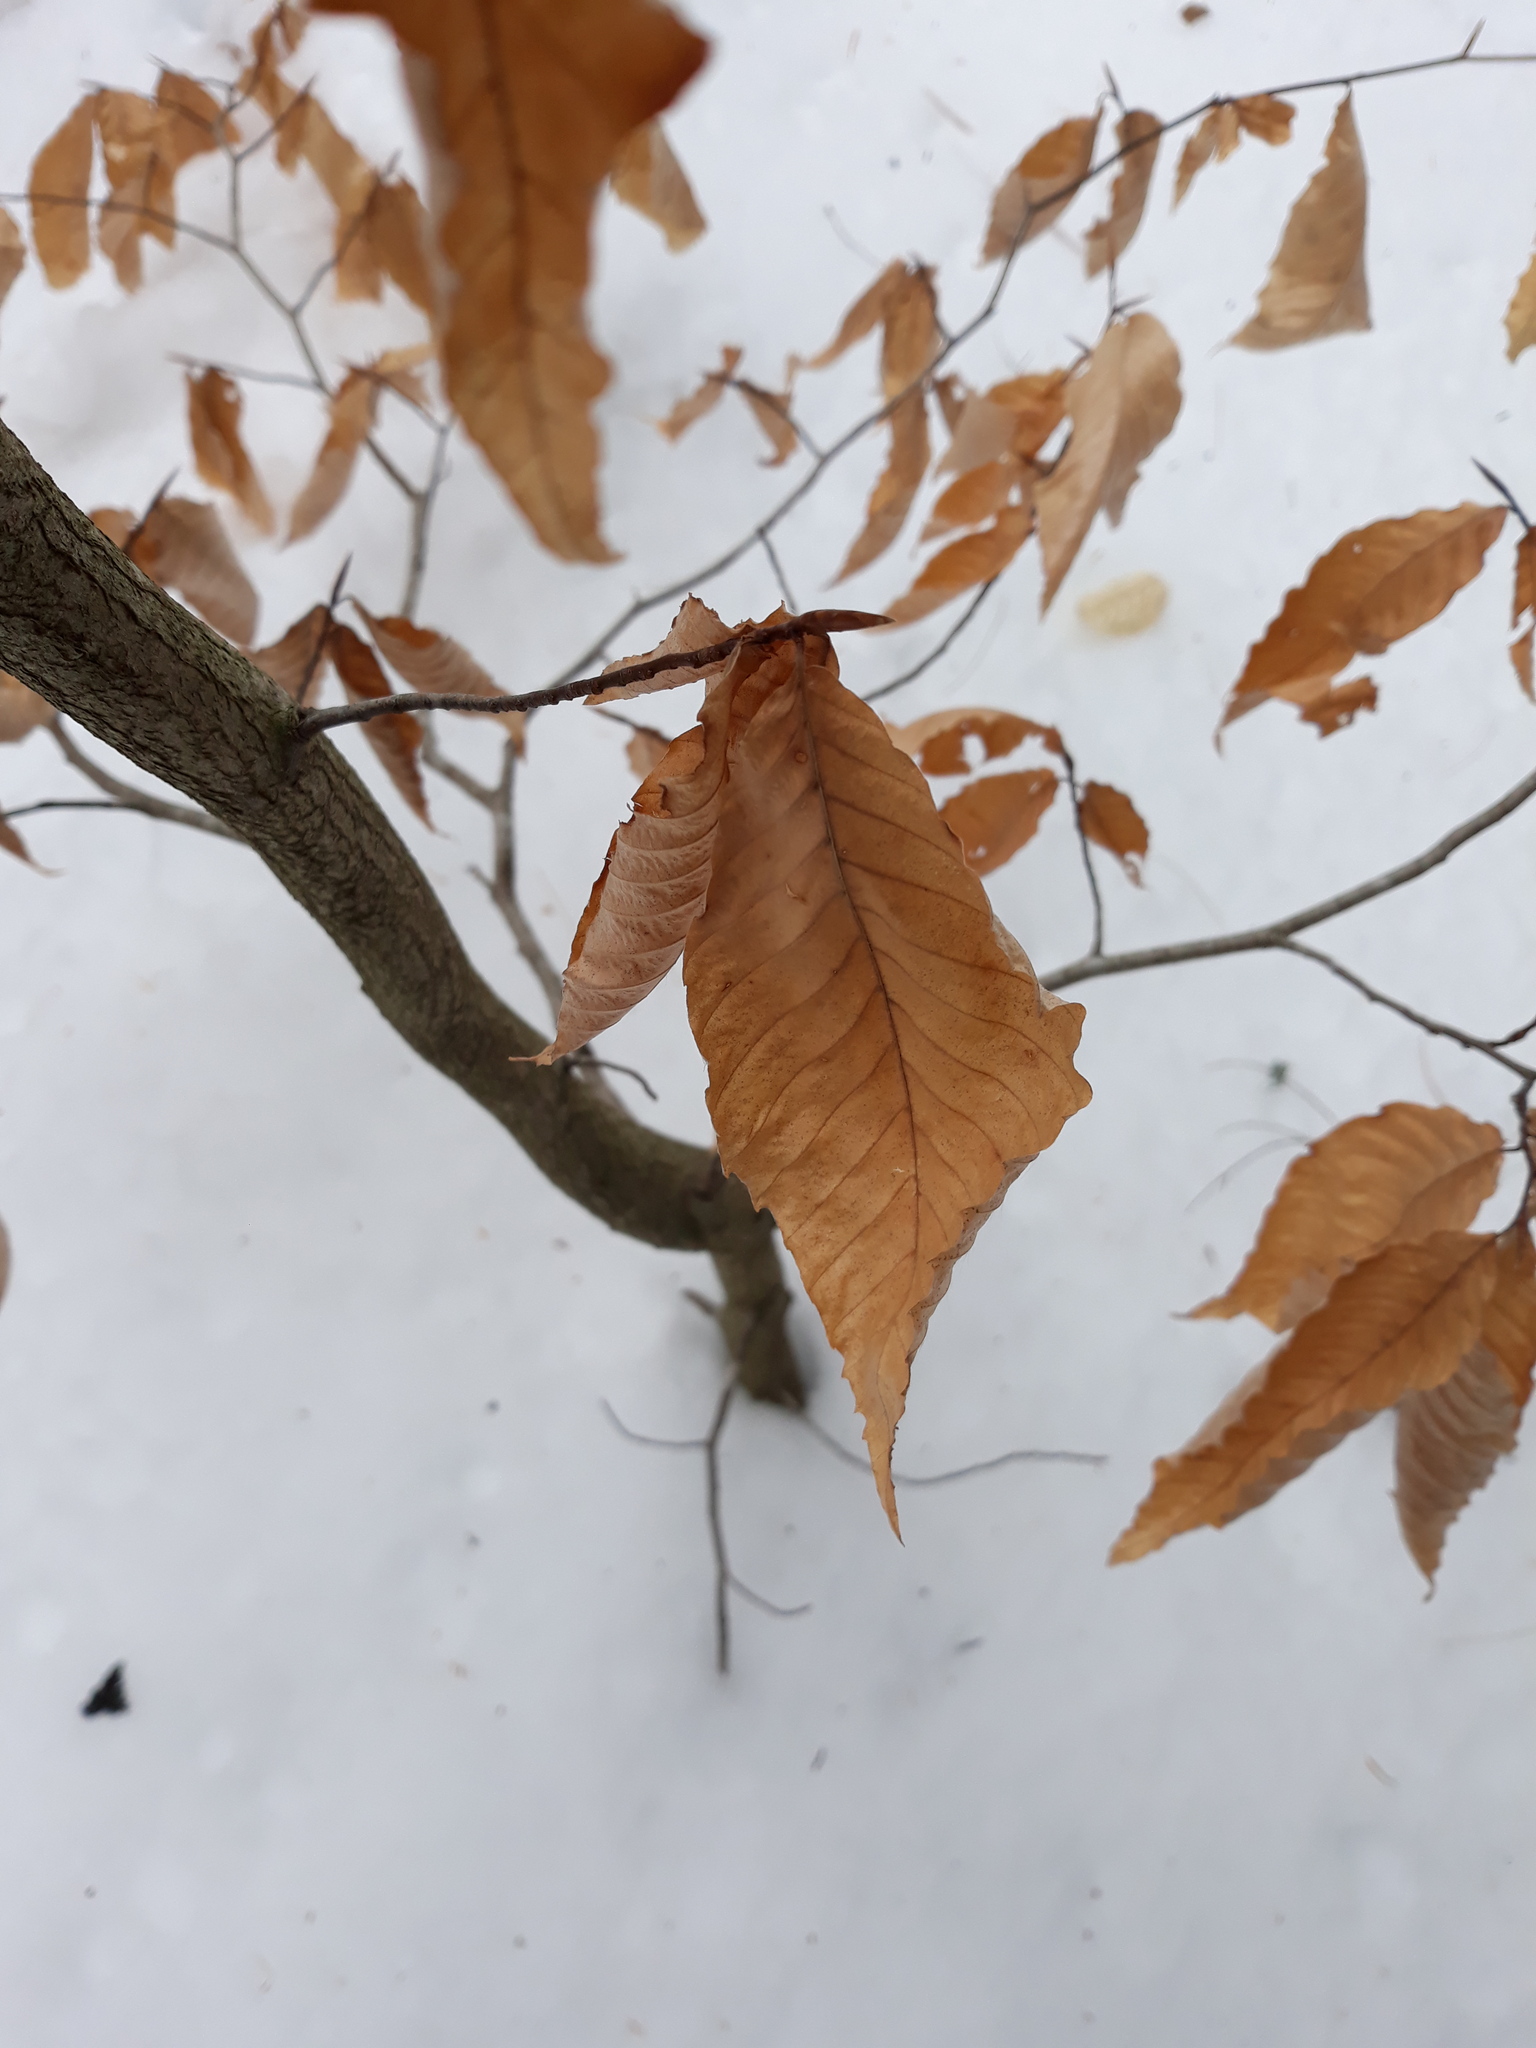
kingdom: Plantae
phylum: Tracheophyta
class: Magnoliopsida
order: Fagales
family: Fagaceae
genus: Fagus
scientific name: Fagus grandifolia
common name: American beech
